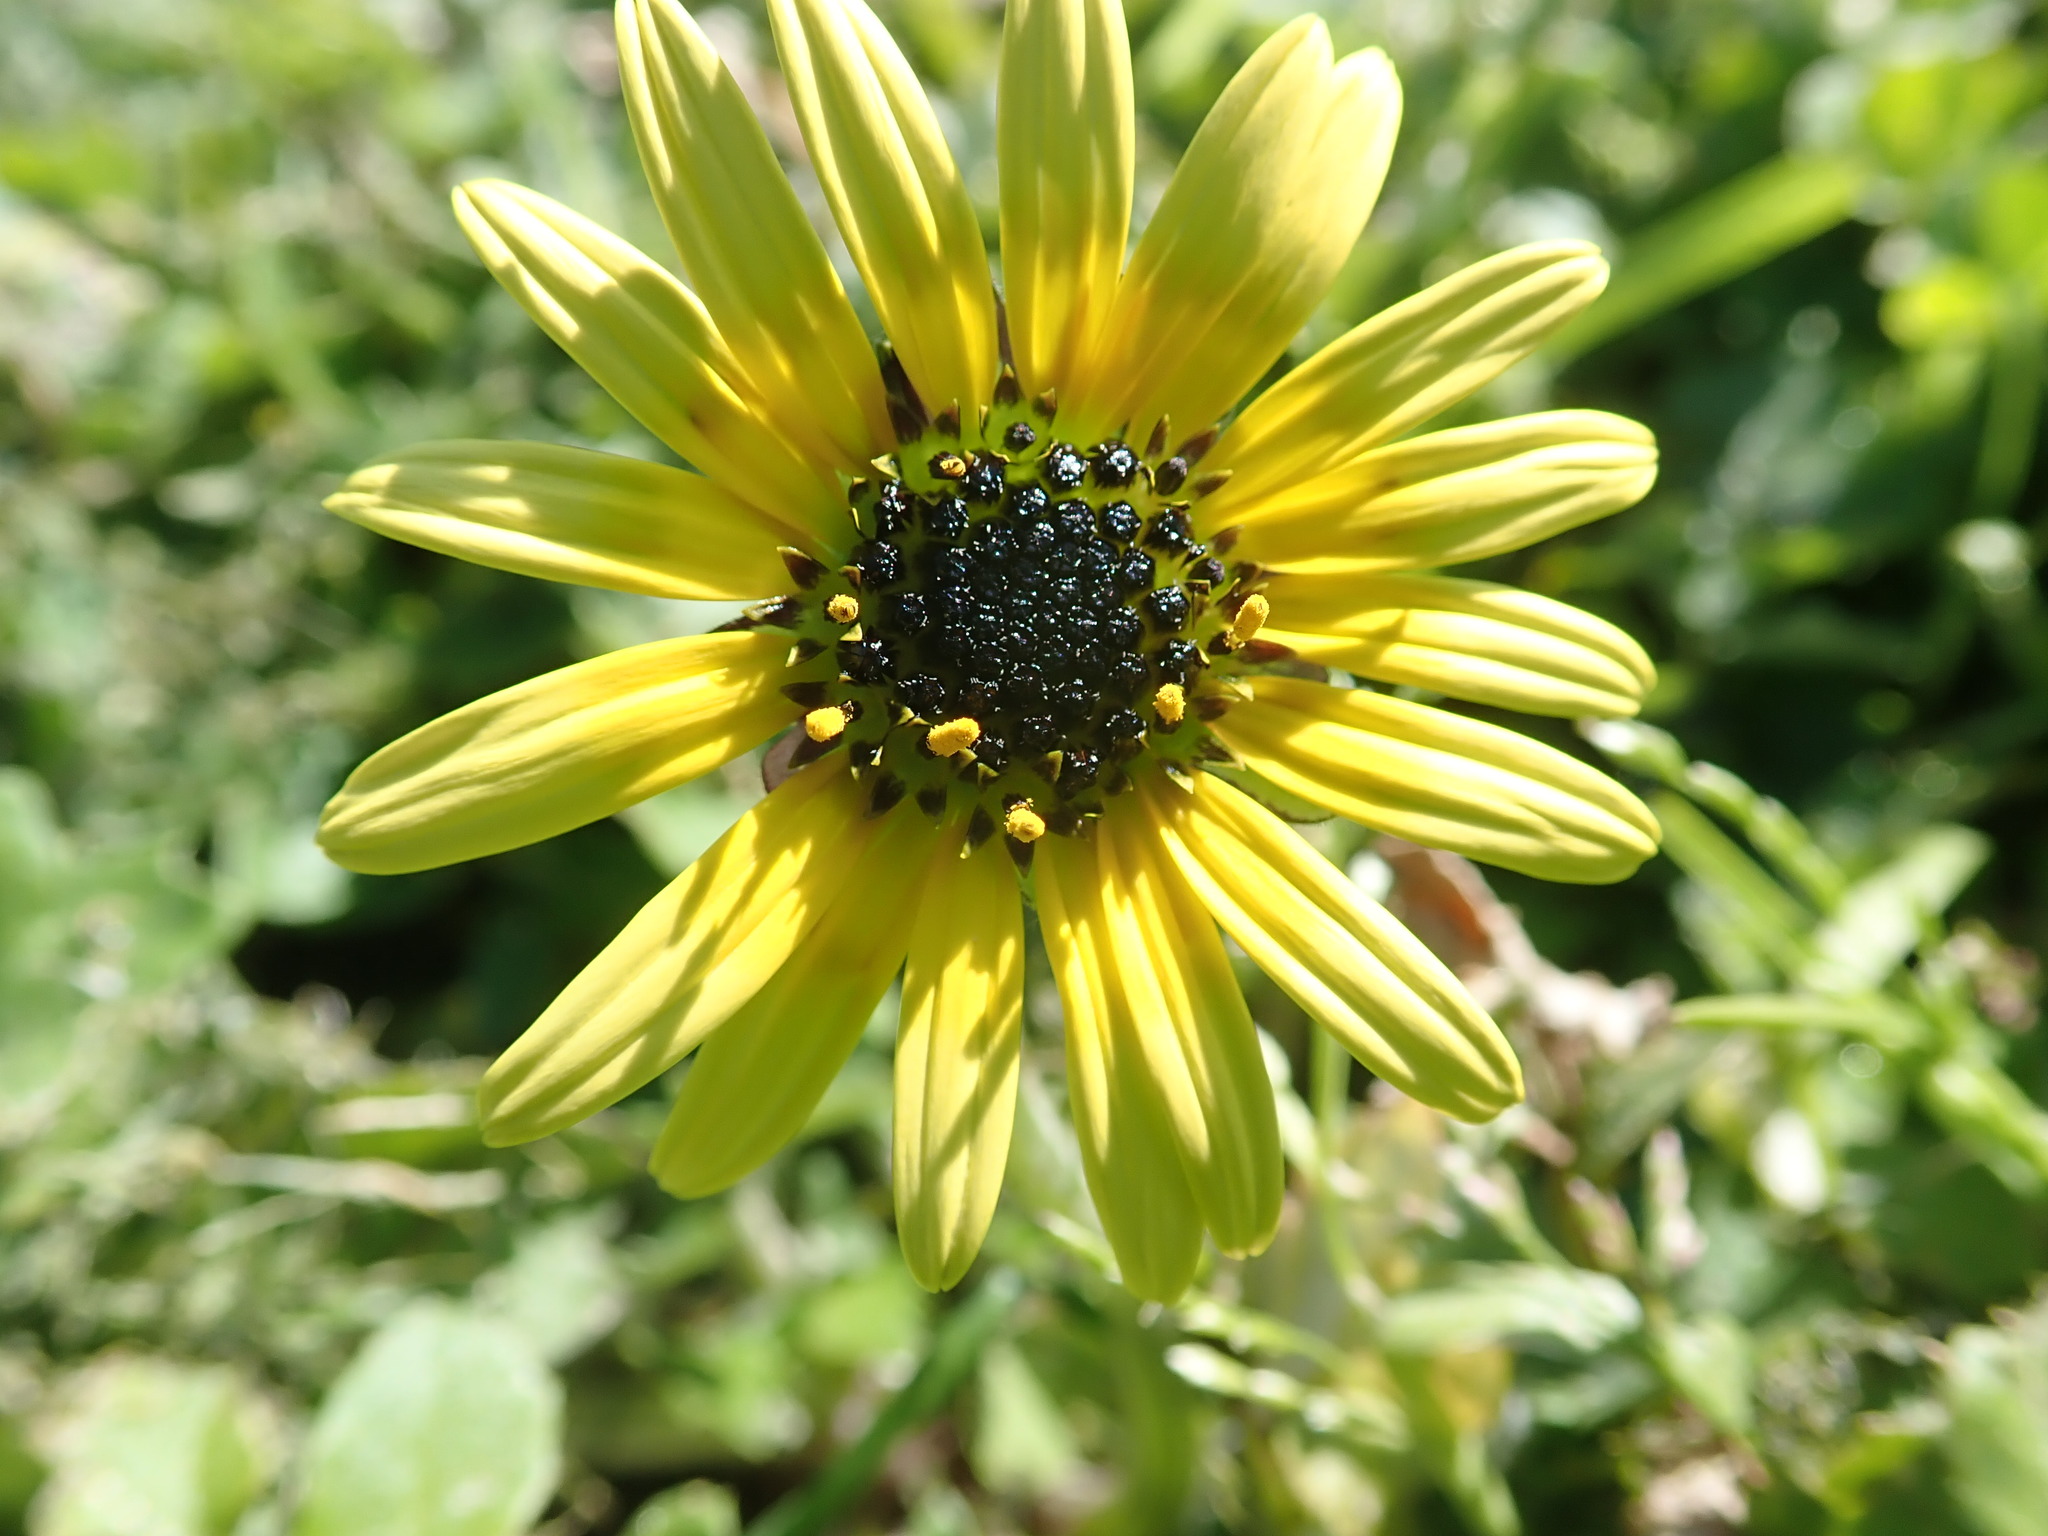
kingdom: Plantae
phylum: Tracheophyta
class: Magnoliopsida
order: Asterales
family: Asteraceae
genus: Arctotheca
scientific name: Arctotheca calendula
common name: Capeweed
